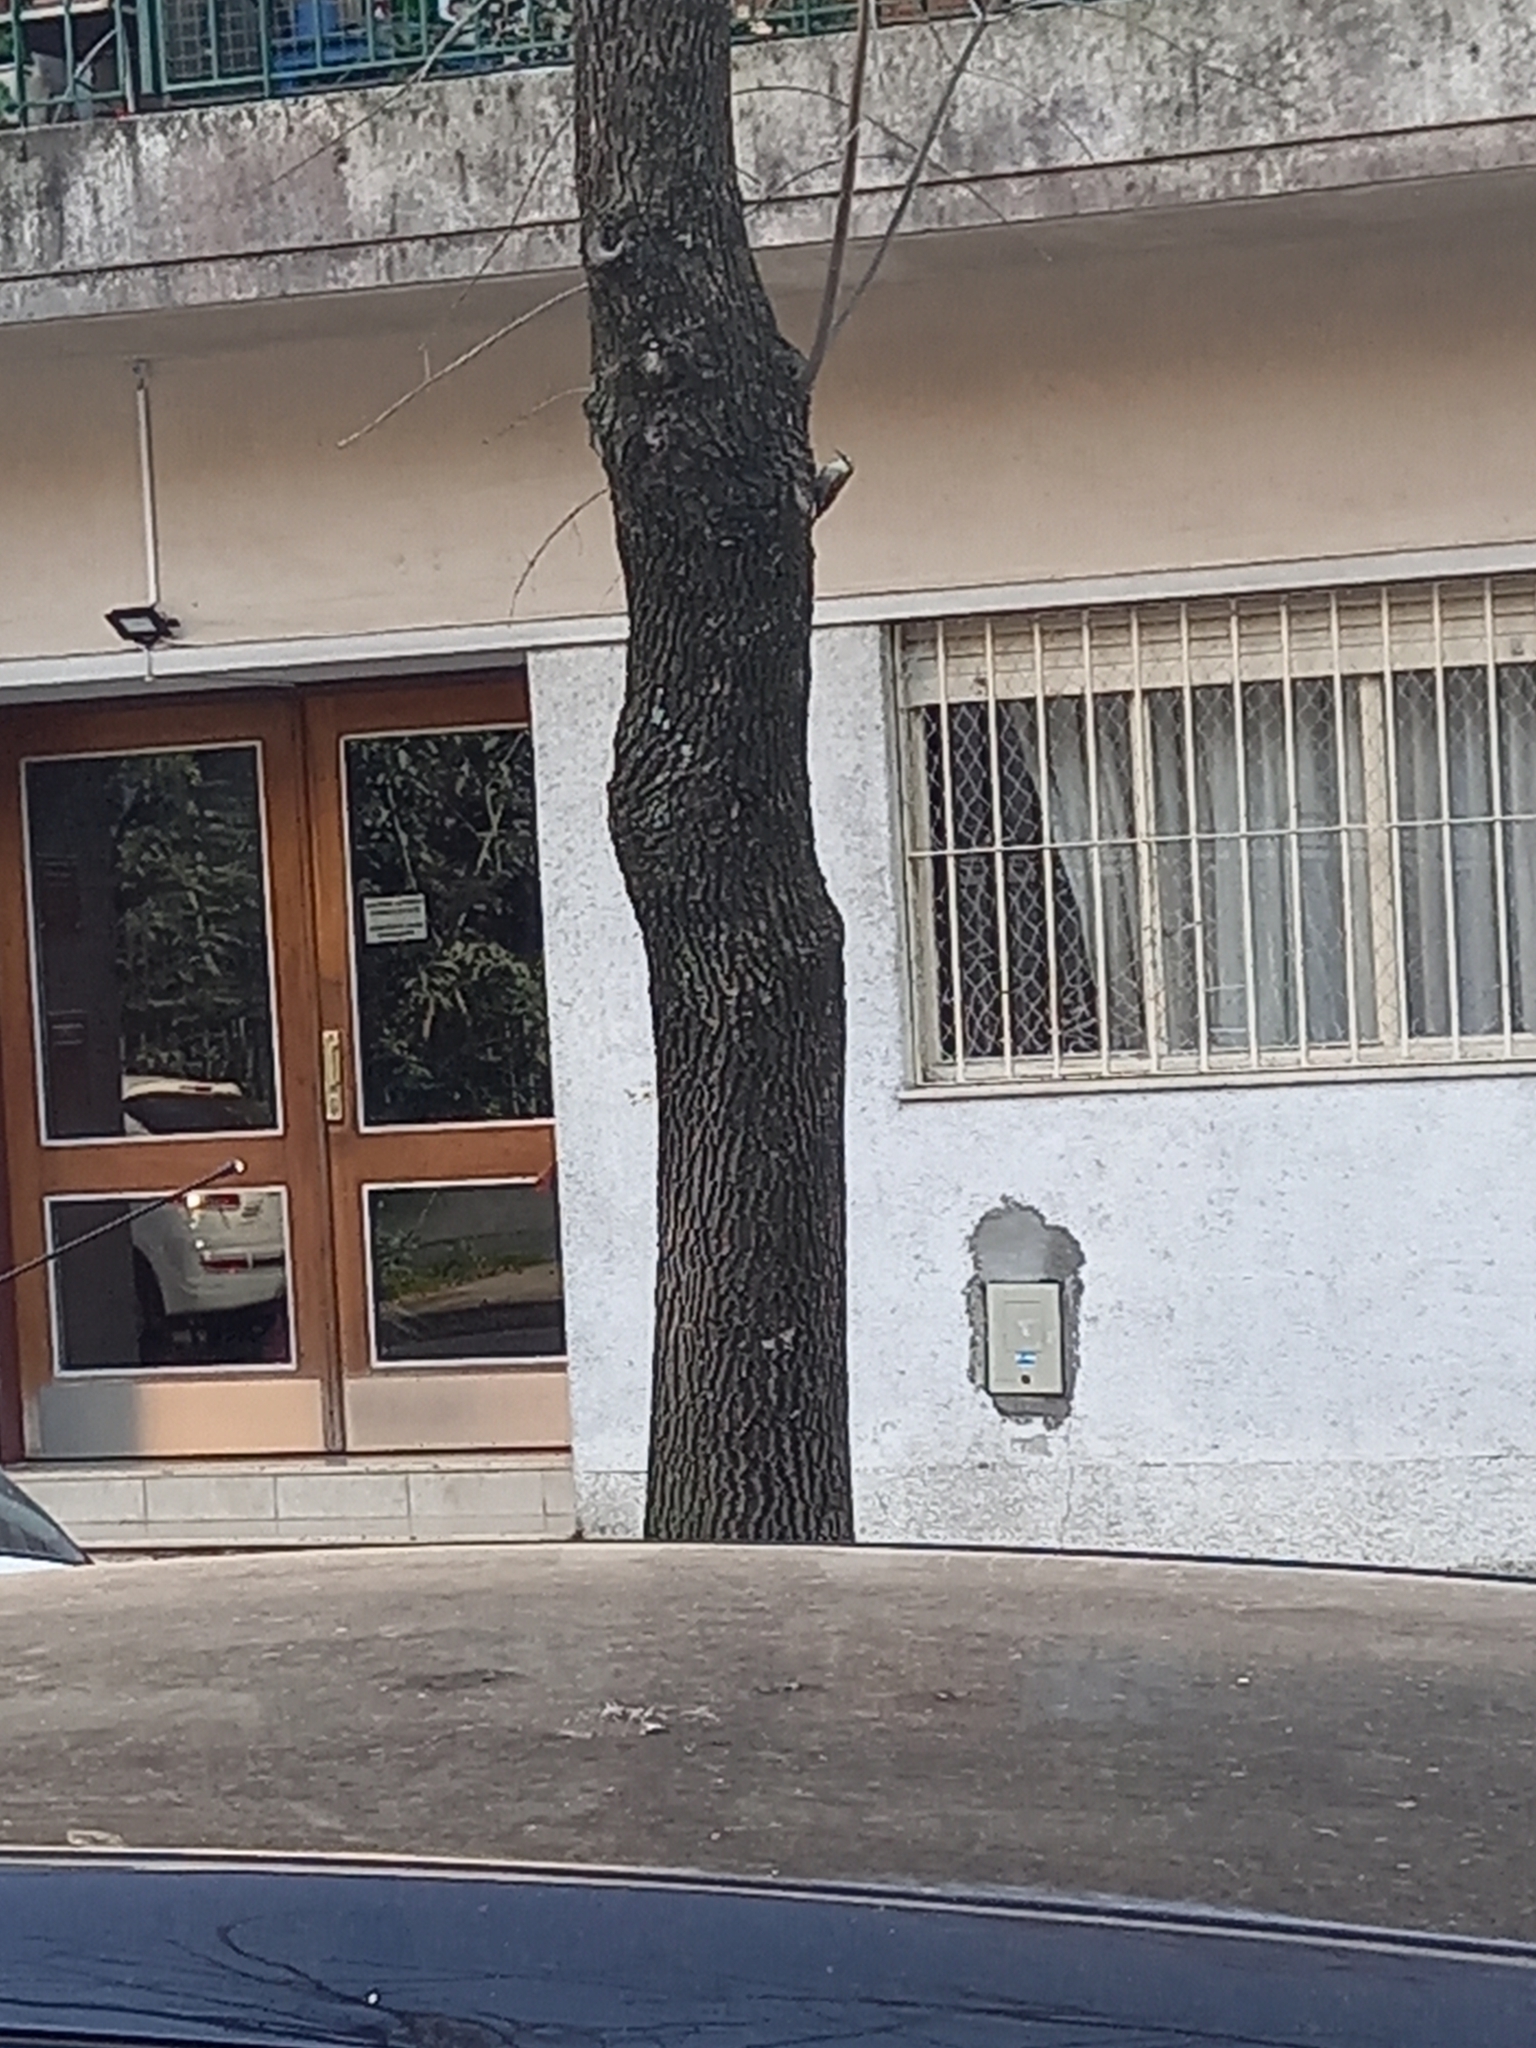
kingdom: Animalia
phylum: Chordata
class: Aves
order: Passeriformes
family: Furnariidae
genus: Lepidocolaptes
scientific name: Lepidocolaptes angustirostris
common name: Narrow-billed woodcreeper
